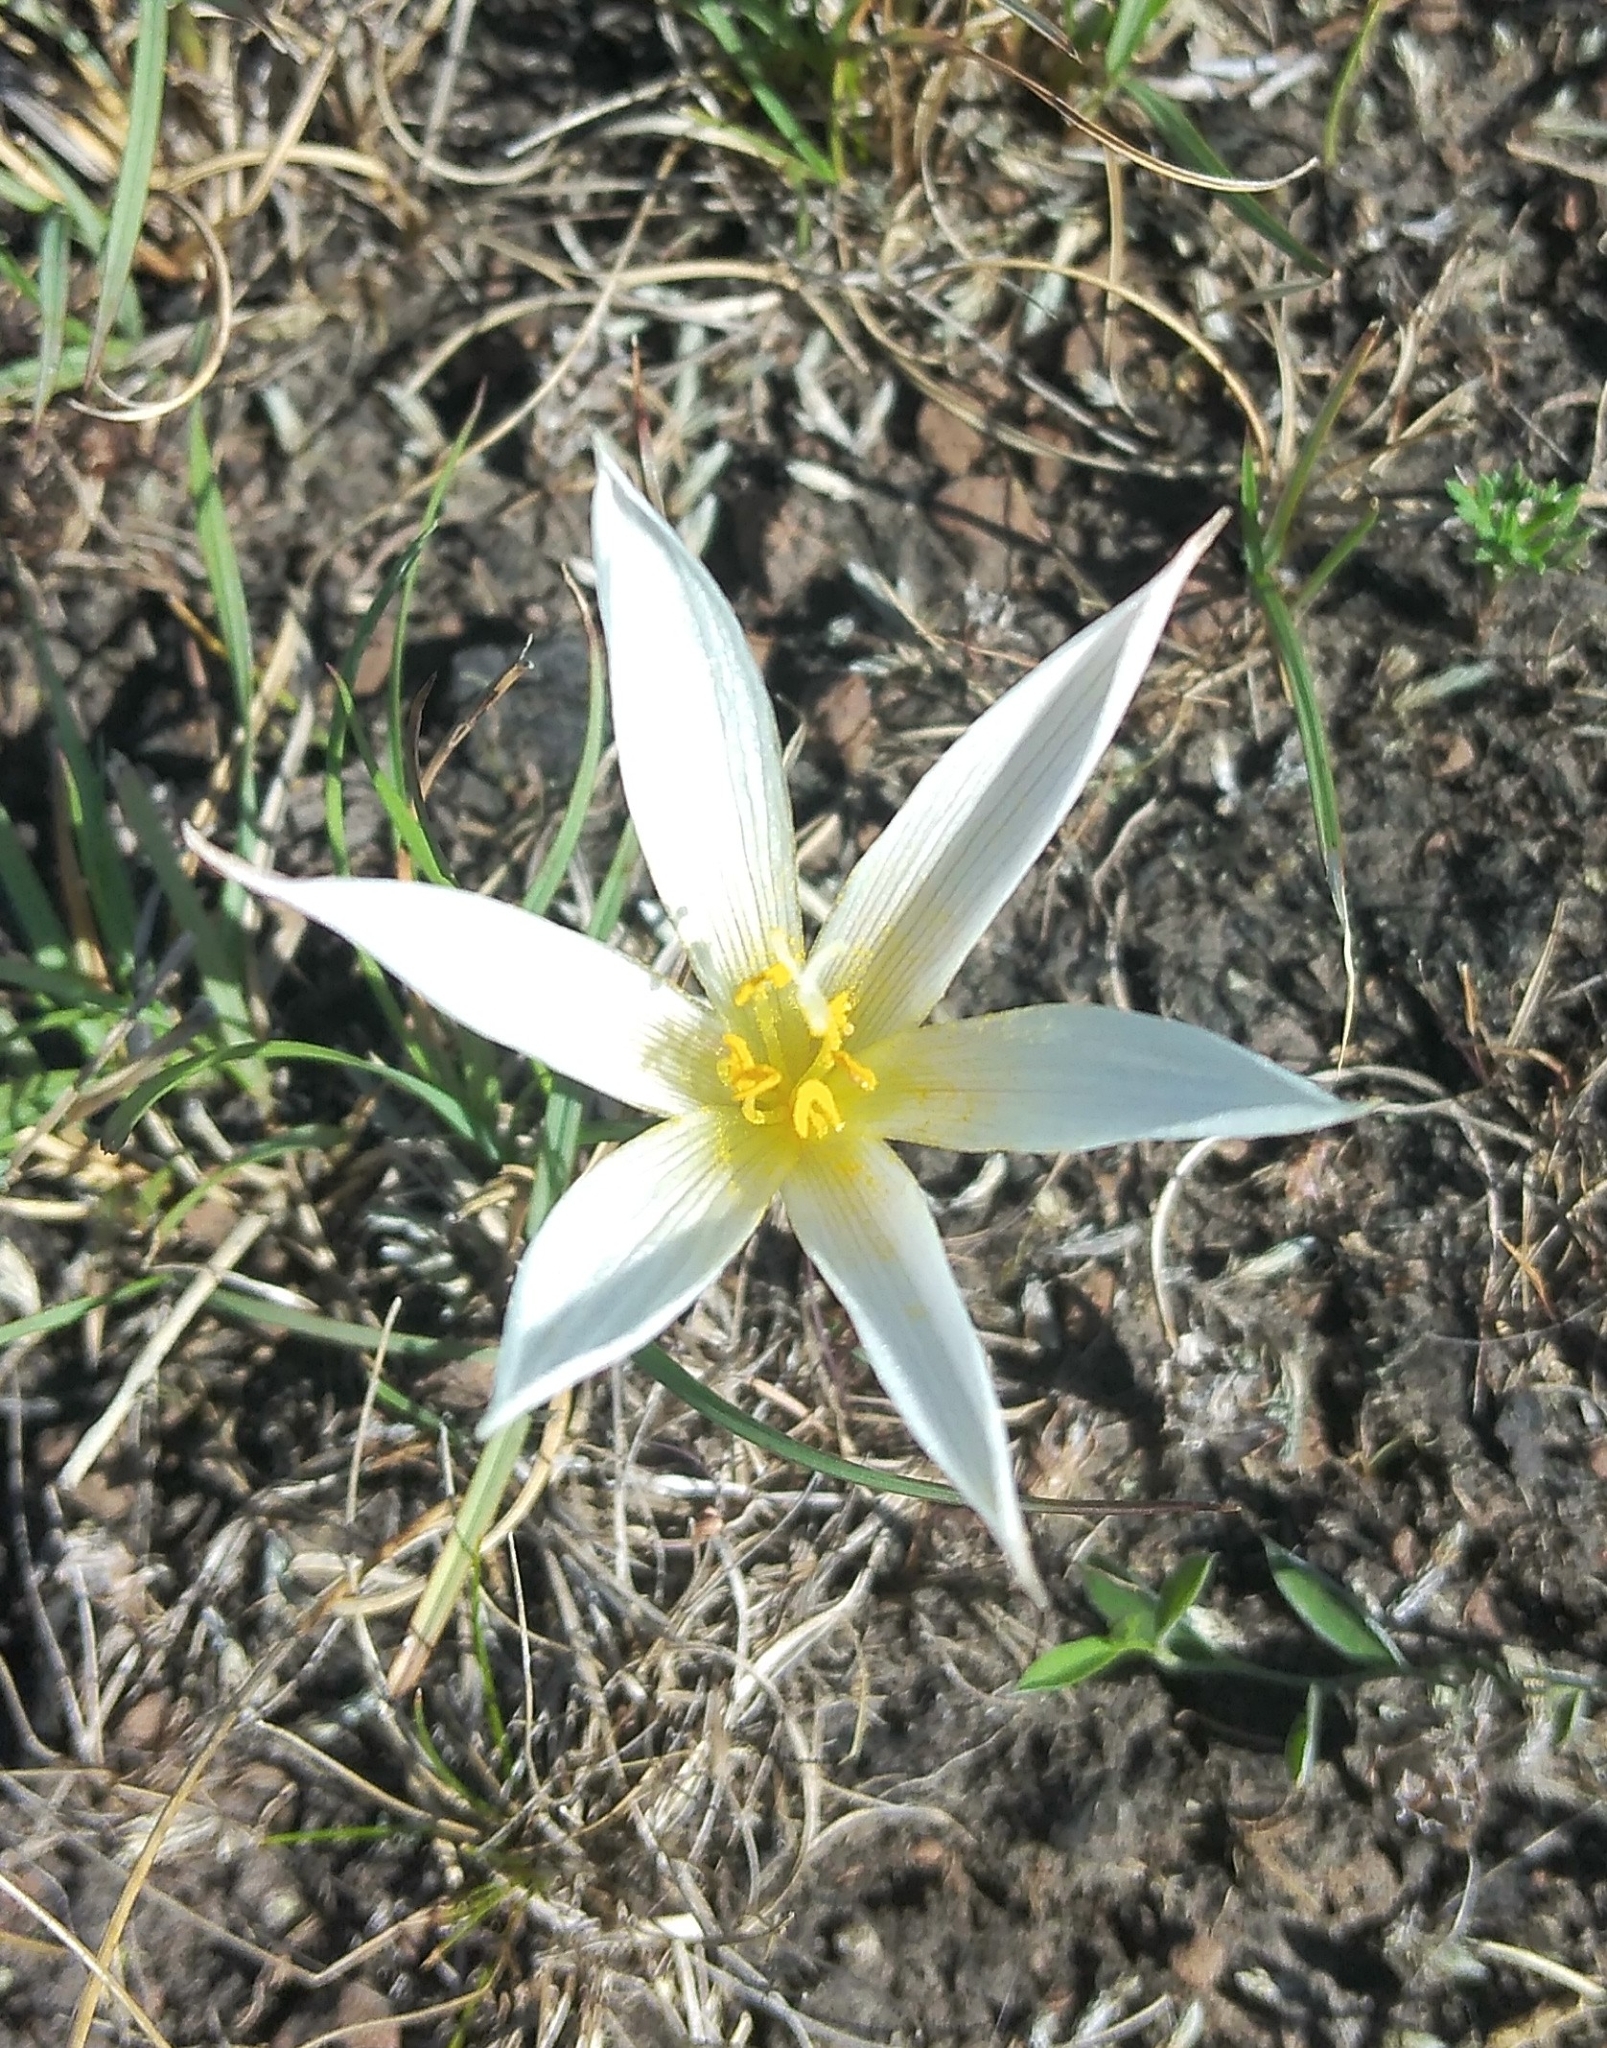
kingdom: Plantae
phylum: Tracheophyta
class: Liliopsida
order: Asparagales
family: Amaryllidaceae
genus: Zephyranthes
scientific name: Zephyranthes mesochloa
